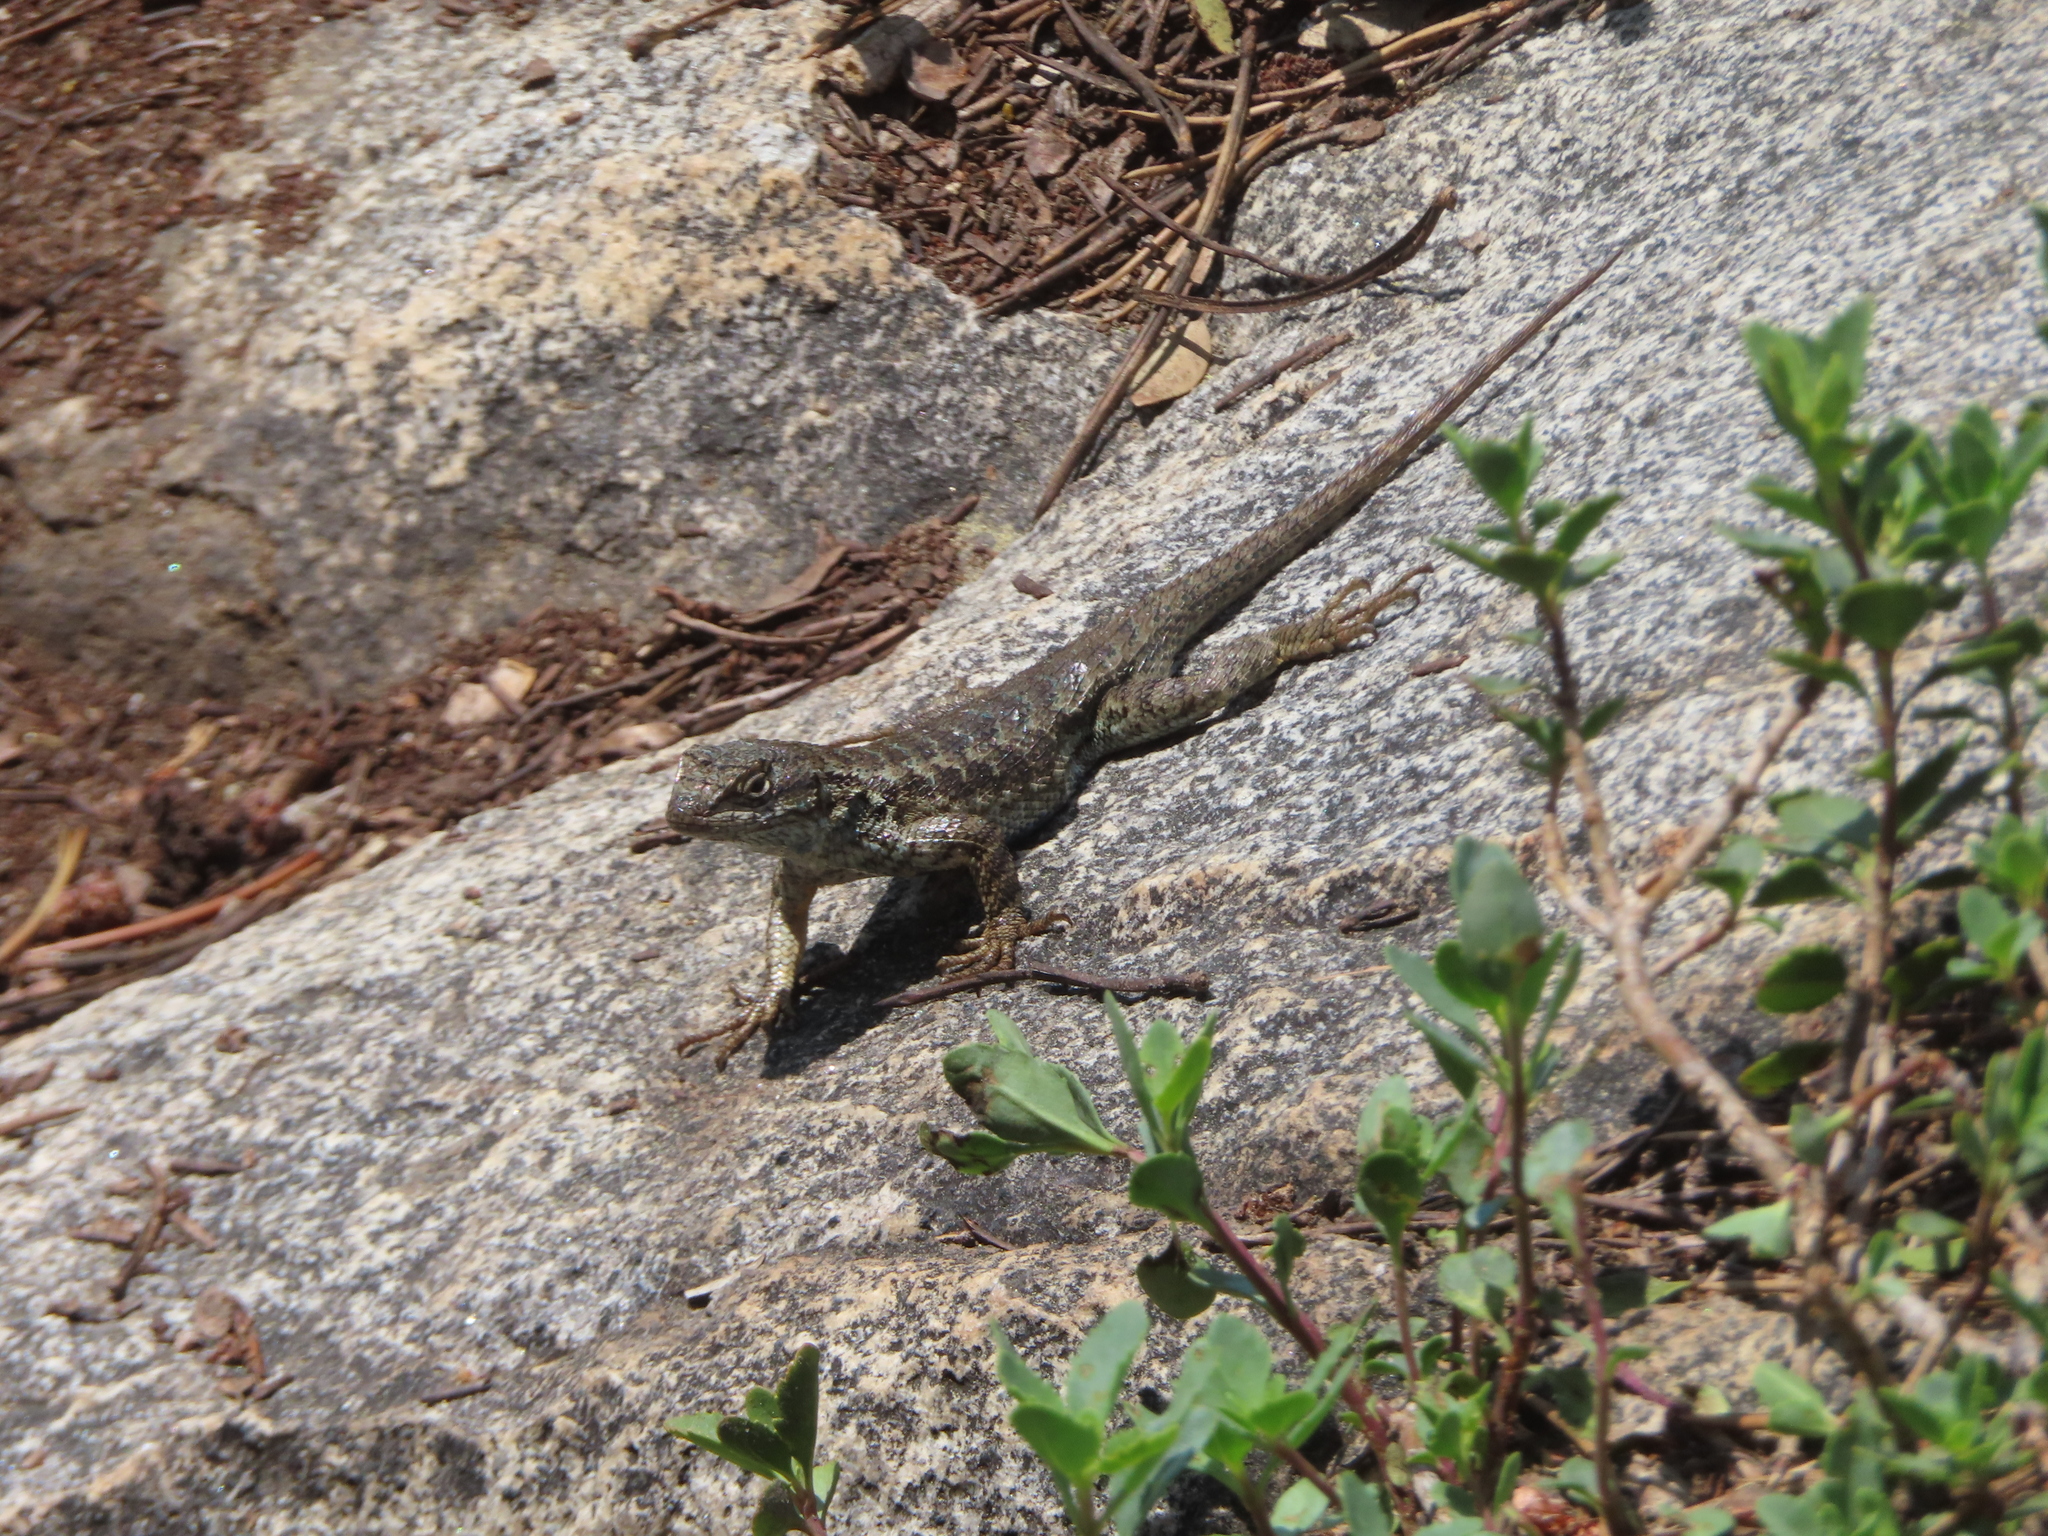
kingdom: Animalia
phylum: Chordata
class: Squamata
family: Phrynosomatidae
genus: Sceloporus
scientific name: Sceloporus occidentalis
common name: Western fence lizard
